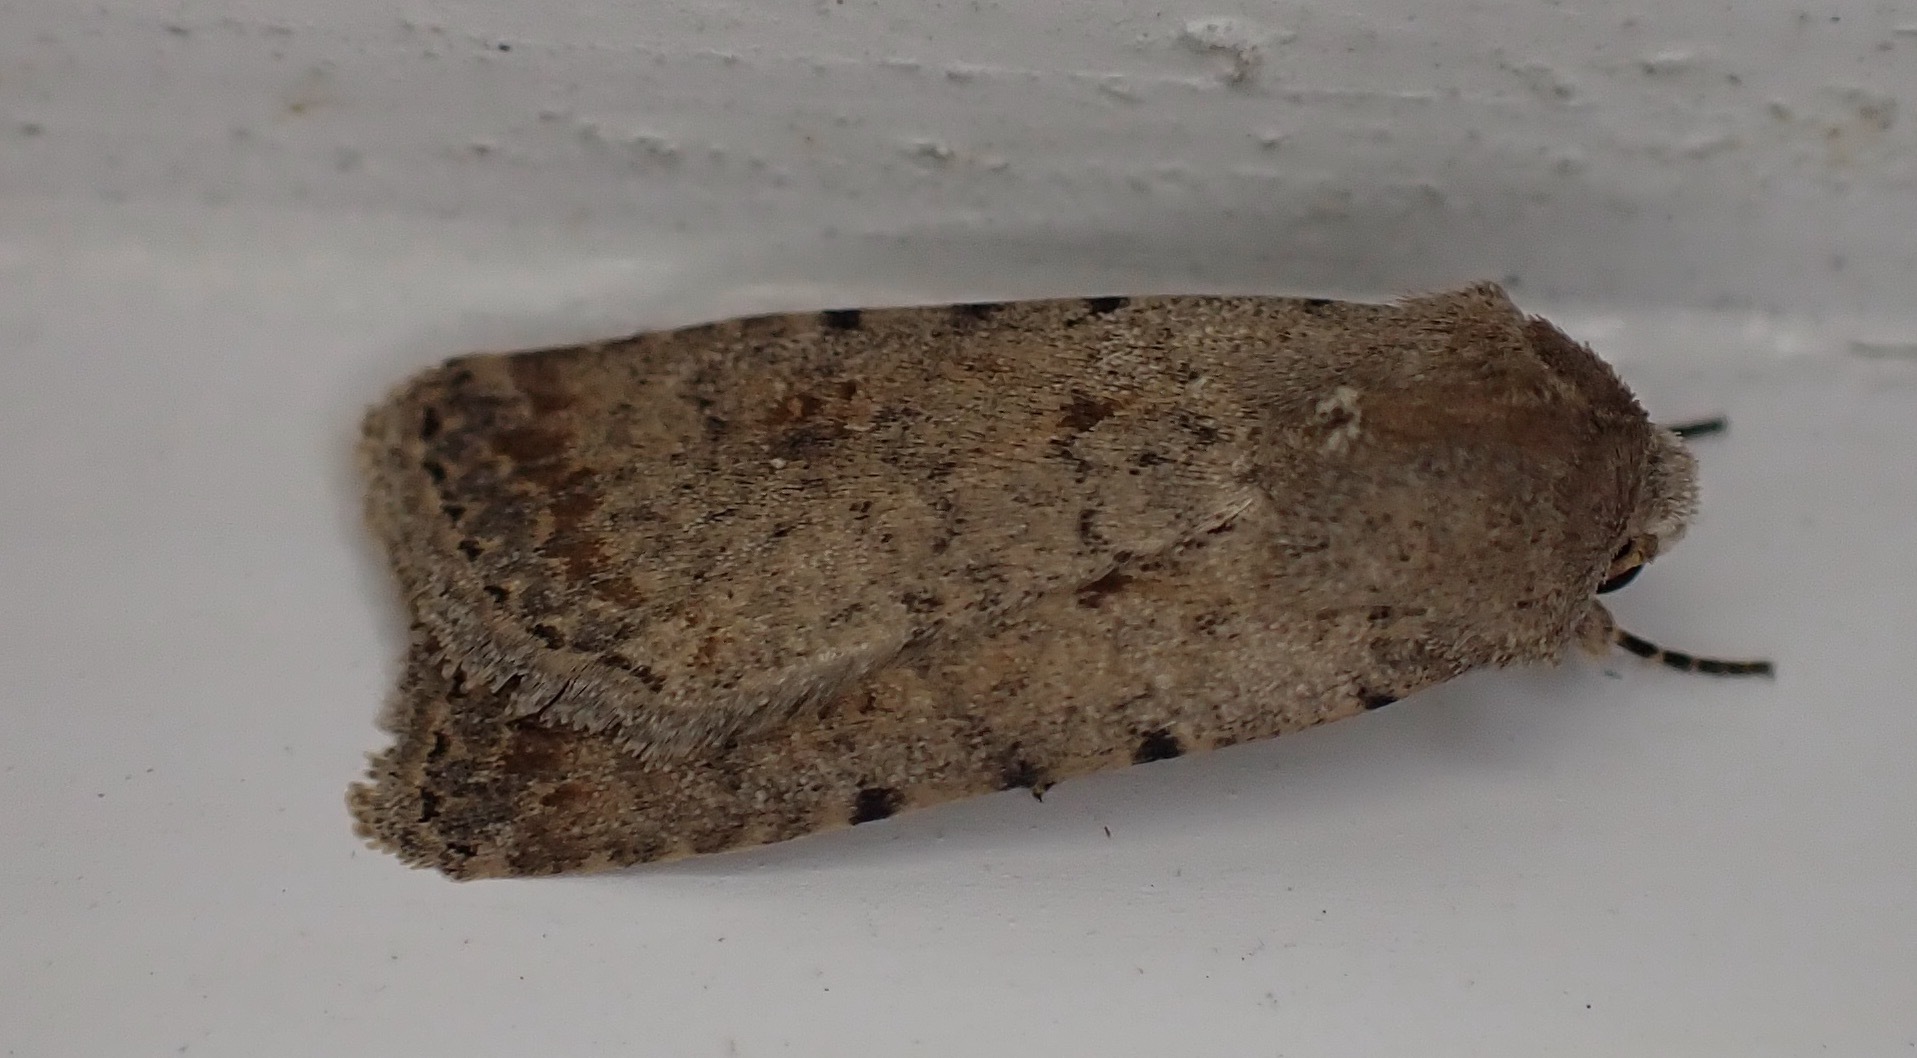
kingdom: Animalia
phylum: Arthropoda
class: Insecta
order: Lepidoptera
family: Noctuidae
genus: Caradrina
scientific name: Caradrina clavipalpis
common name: Pale mottled willow
